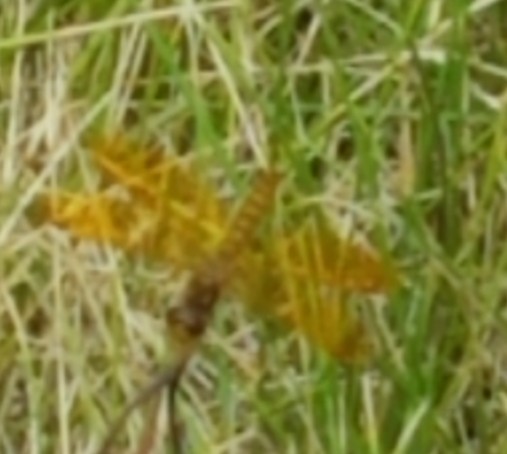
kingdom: Animalia
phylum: Arthropoda
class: Insecta
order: Odonata
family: Libellulidae
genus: Perithemis
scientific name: Perithemis tenera
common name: Eastern amberwing
